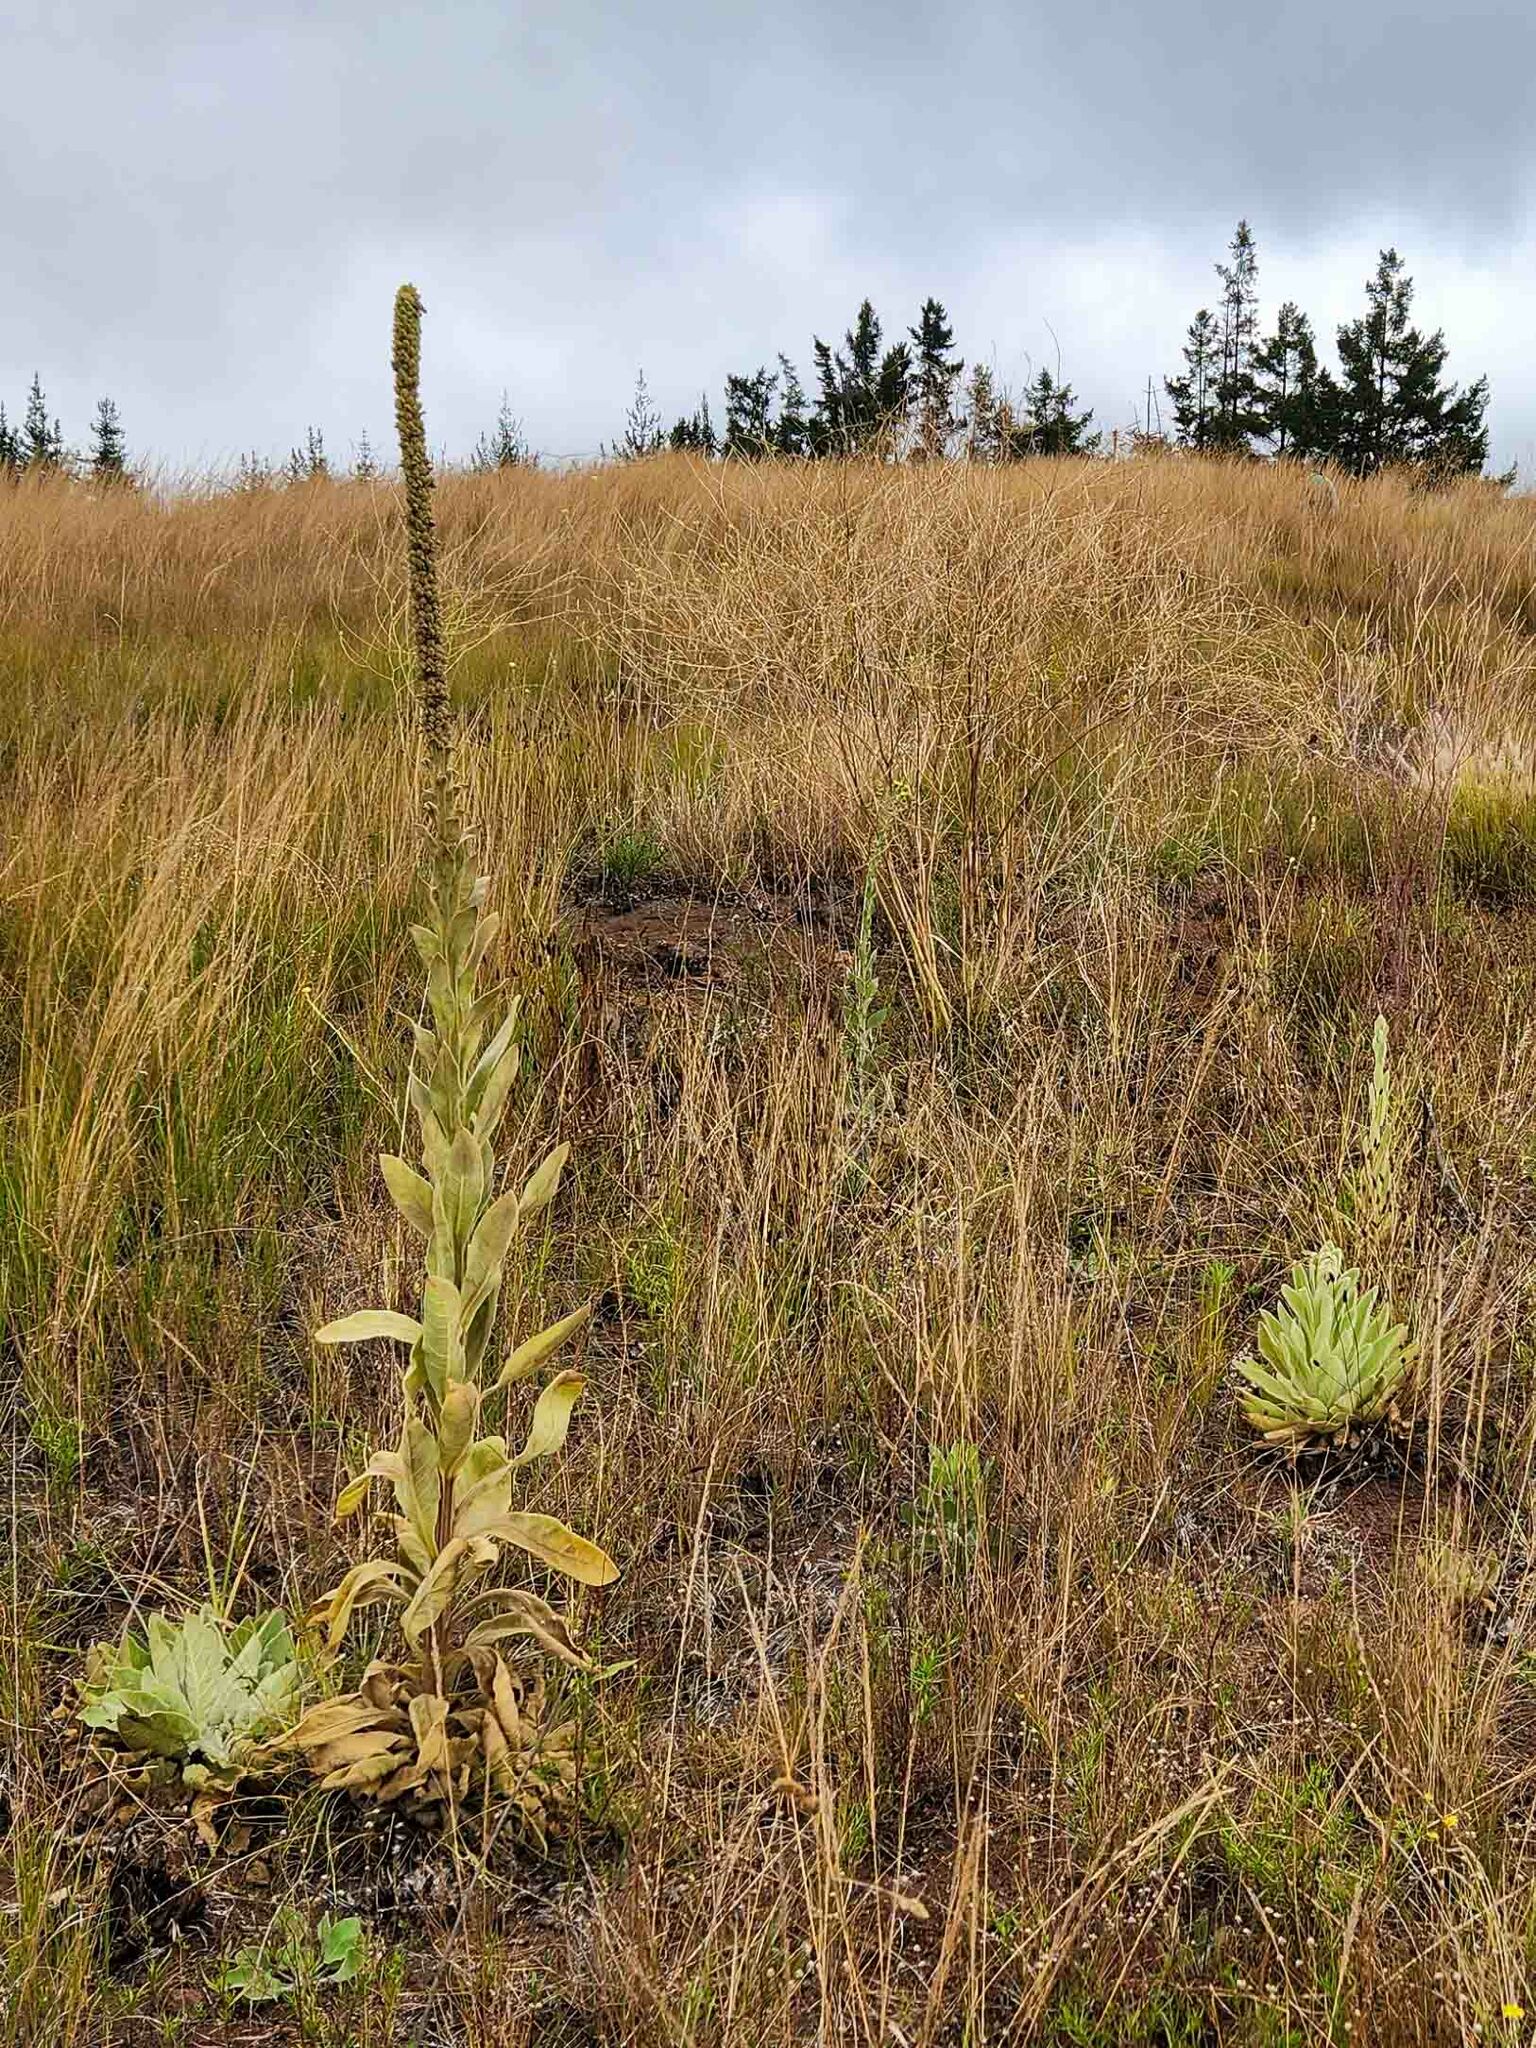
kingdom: Plantae
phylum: Tracheophyta
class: Magnoliopsida
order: Lamiales
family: Scrophulariaceae
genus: Verbascum
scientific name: Verbascum thapsus
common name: Common mullein
